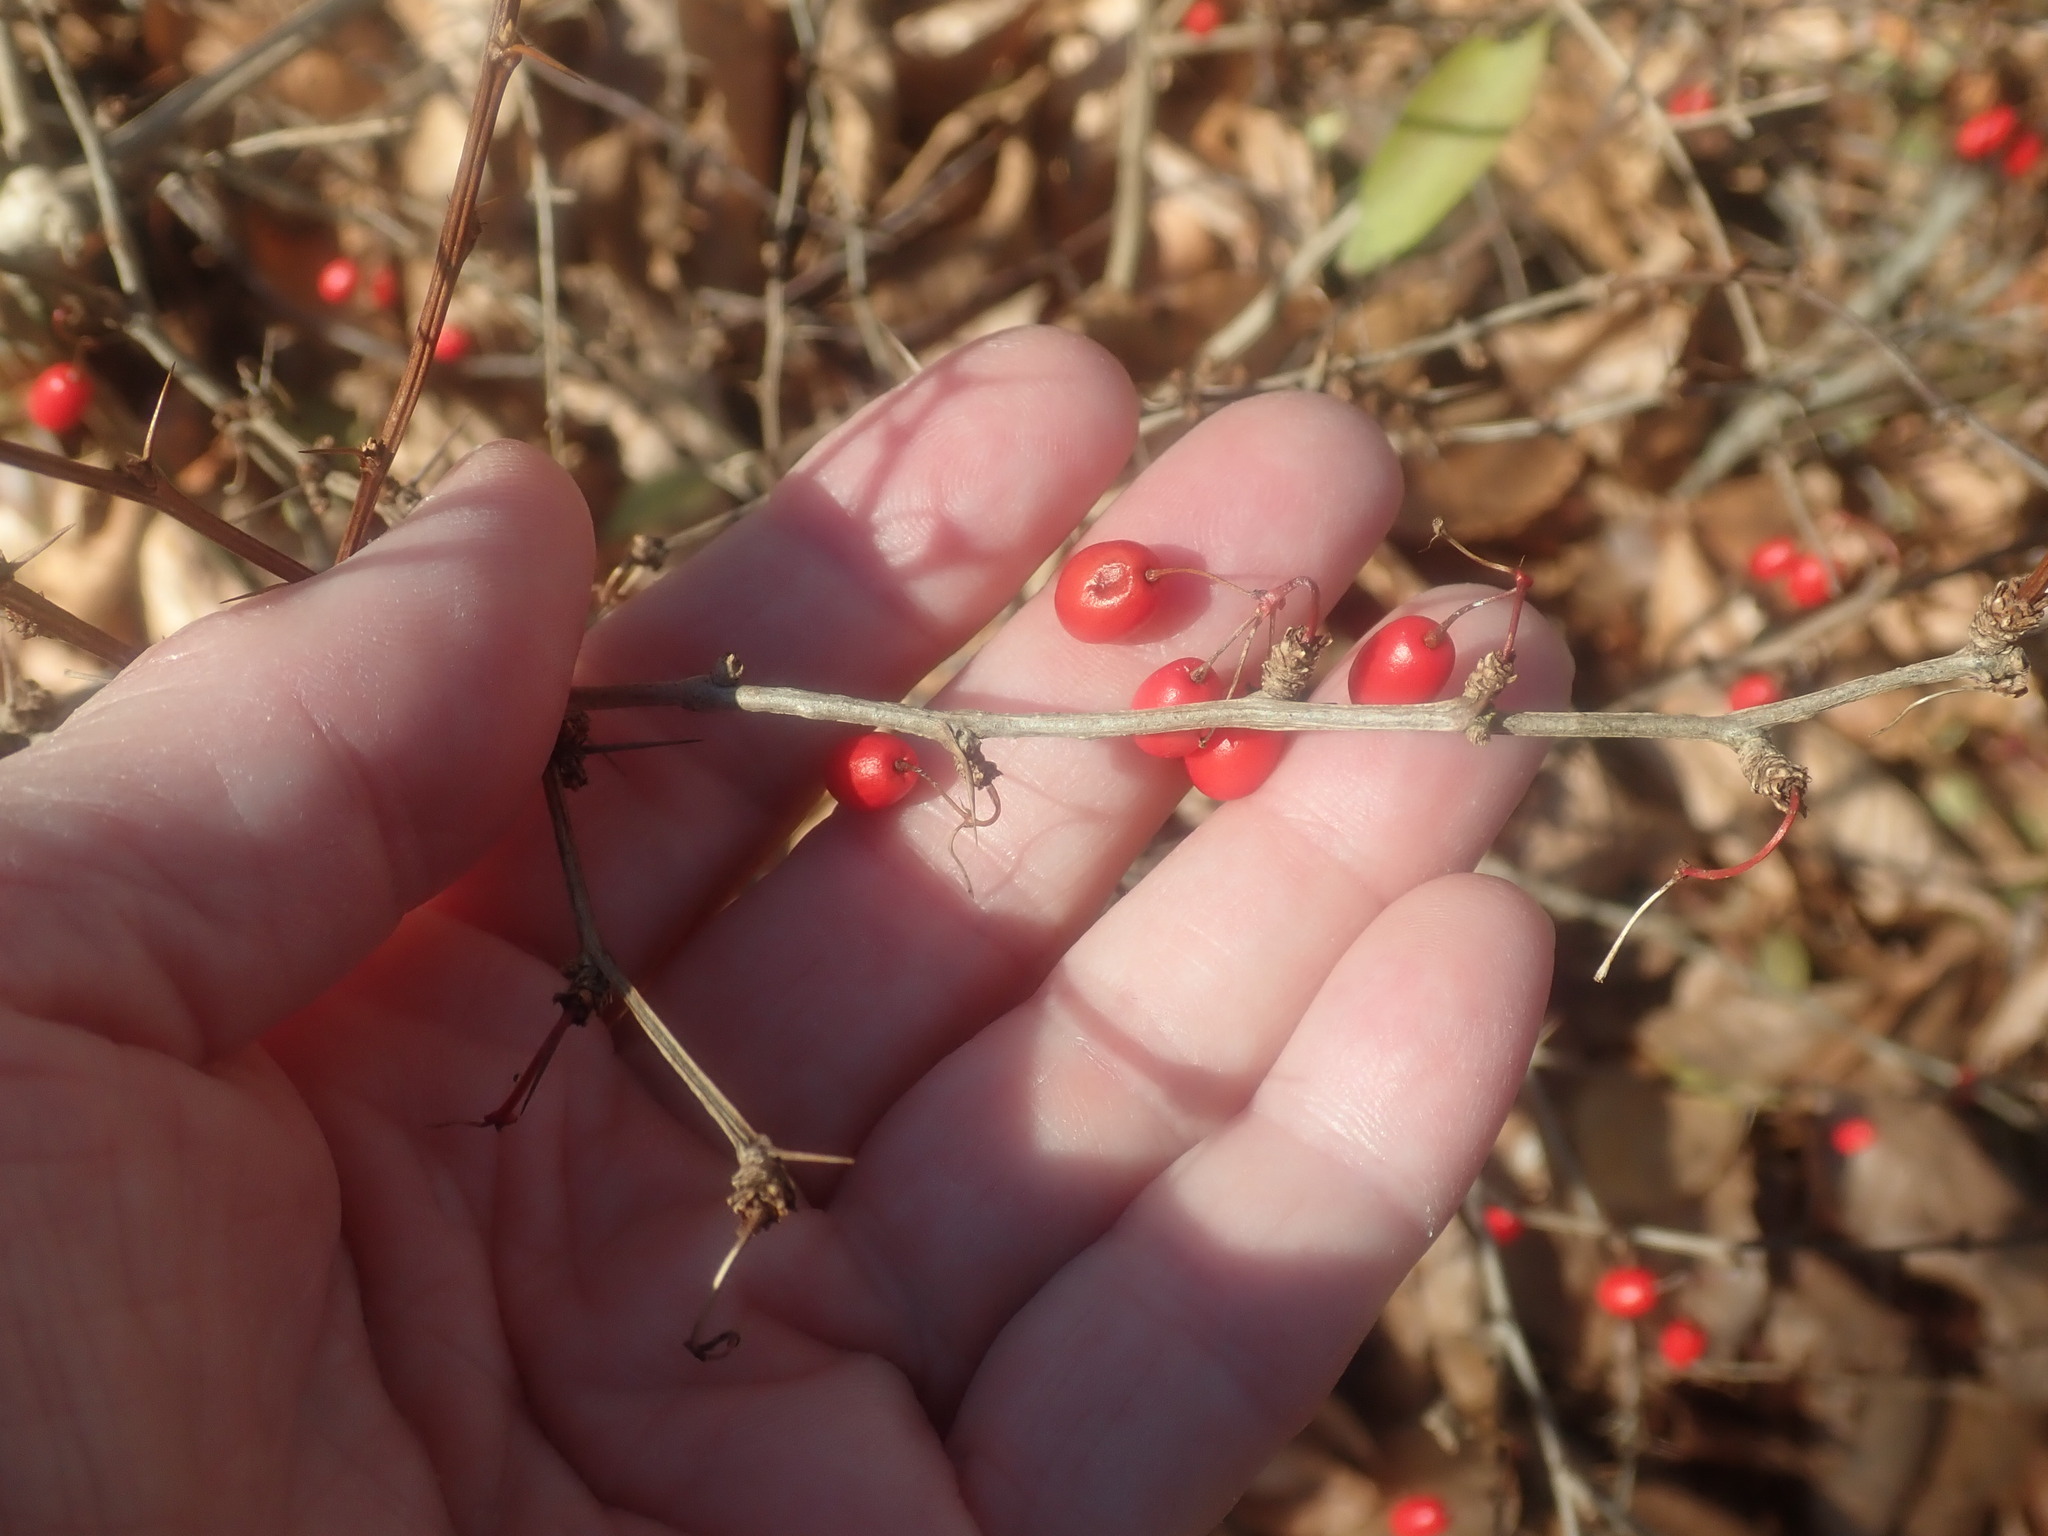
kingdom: Plantae
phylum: Tracheophyta
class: Magnoliopsida
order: Ranunculales
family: Berberidaceae
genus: Berberis
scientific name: Berberis thunbergii
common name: Japanese barberry
